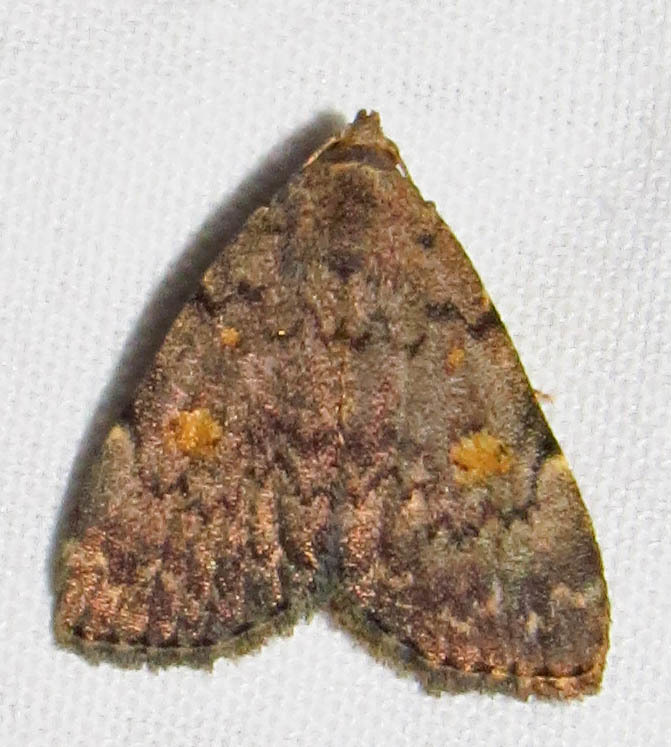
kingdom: Animalia
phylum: Arthropoda
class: Insecta
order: Lepidoptera
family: Erebidae
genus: Idia
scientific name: Idia aemula
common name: Common idia moth
